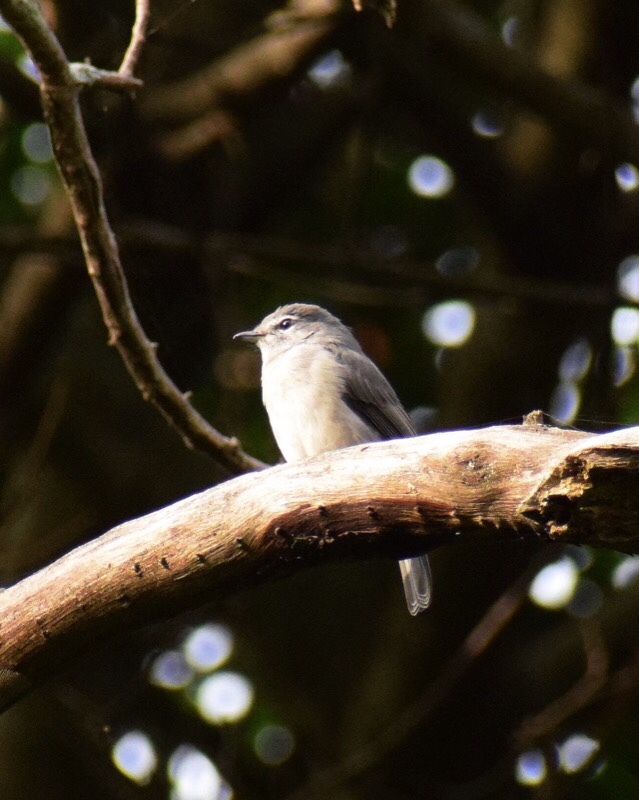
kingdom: Animalia
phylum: Chordata
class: Aves
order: Passeriformes
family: Muscicapidae
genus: Muscicapa
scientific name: Muscicapa caerulescens
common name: Ashy flycatcher
